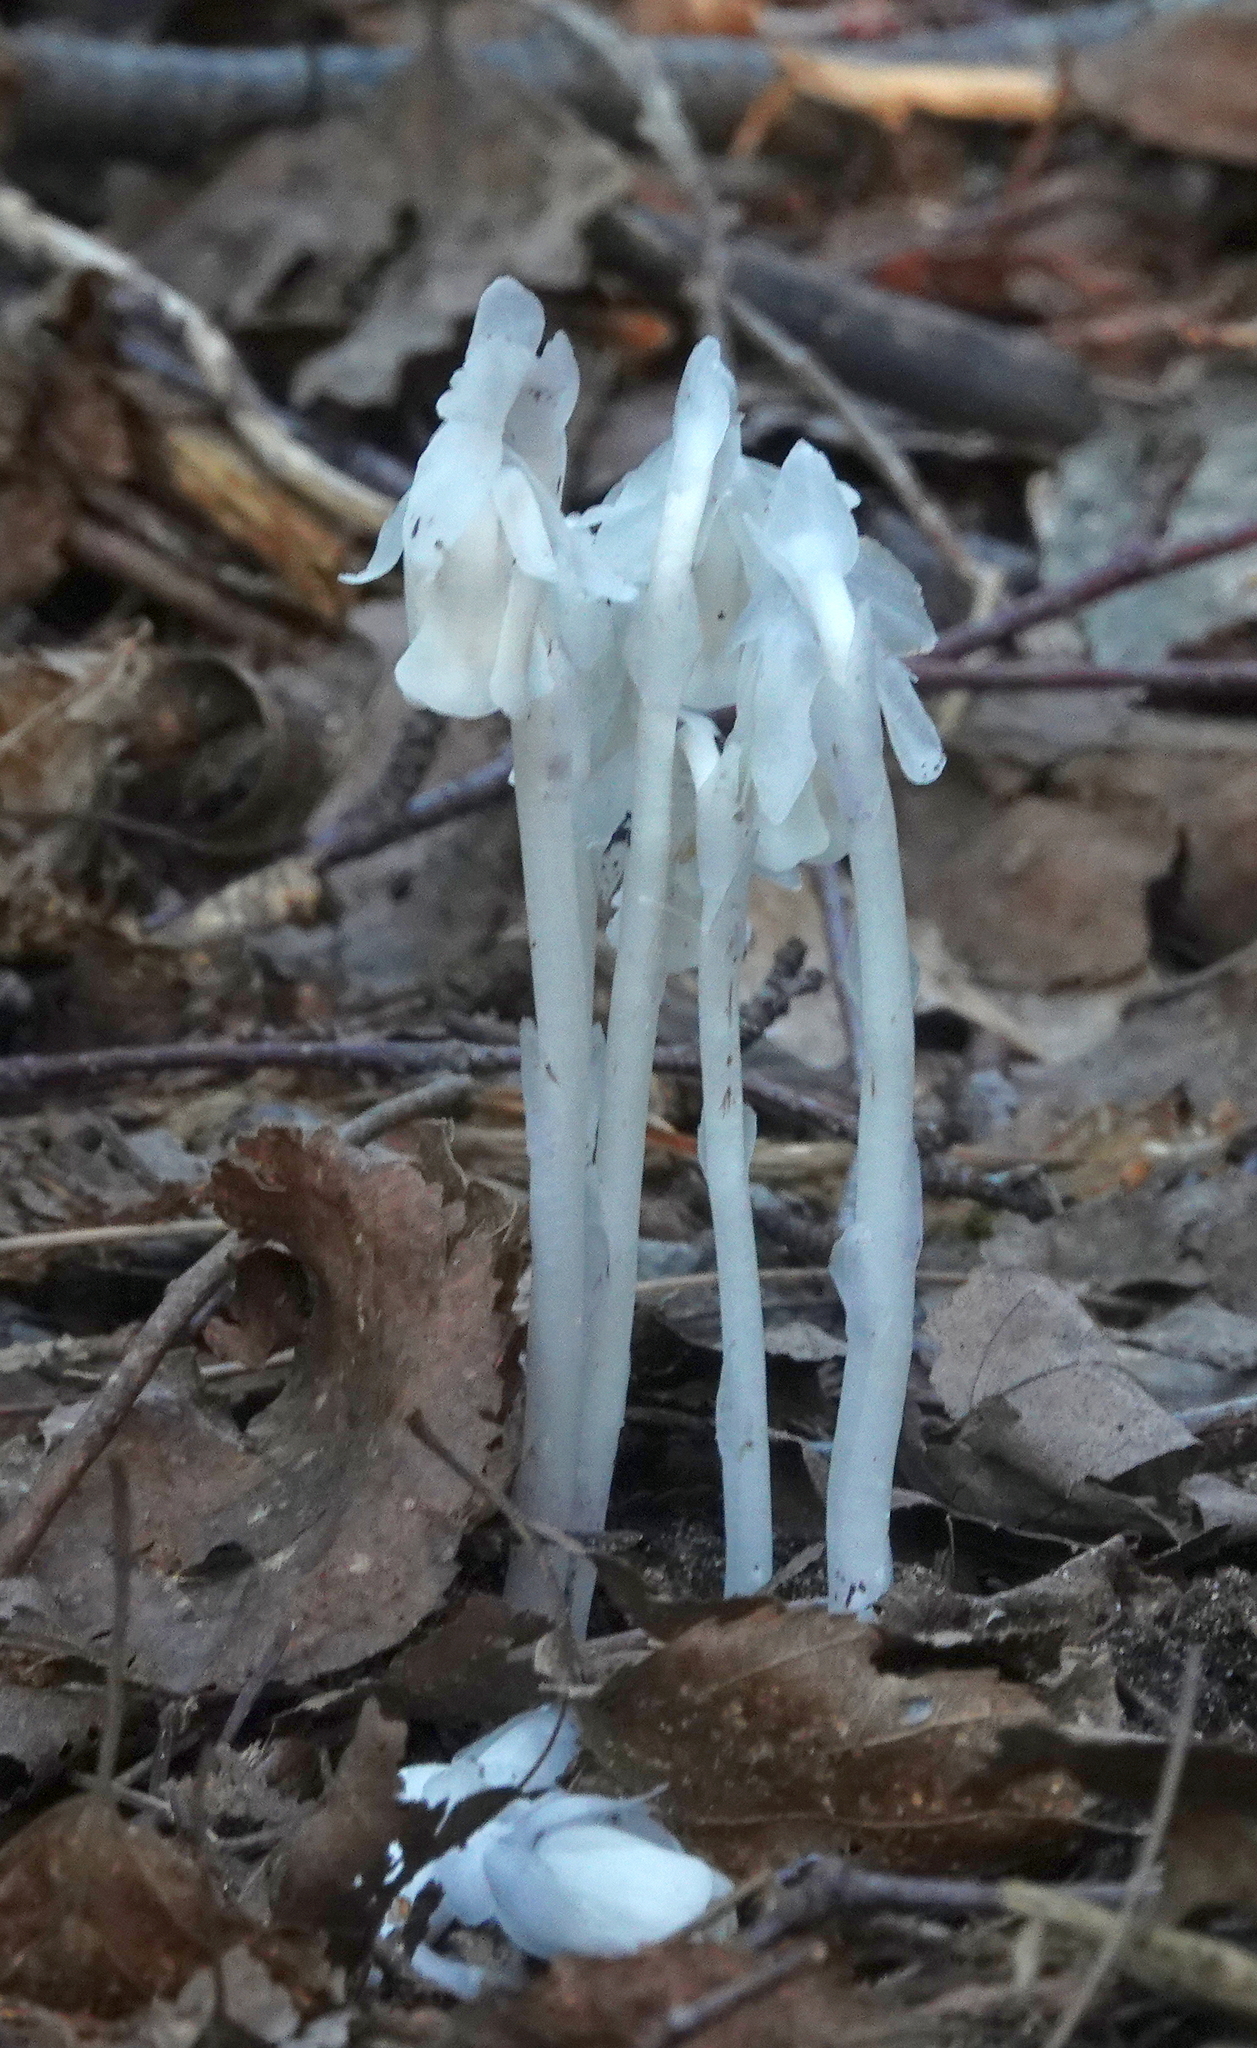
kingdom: Plantae
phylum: Tracheophyta
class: Magnoliopsida
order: Ericales
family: Ericaceae
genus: Monotropa
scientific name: Monotropa uniflora
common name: Convulsion root
